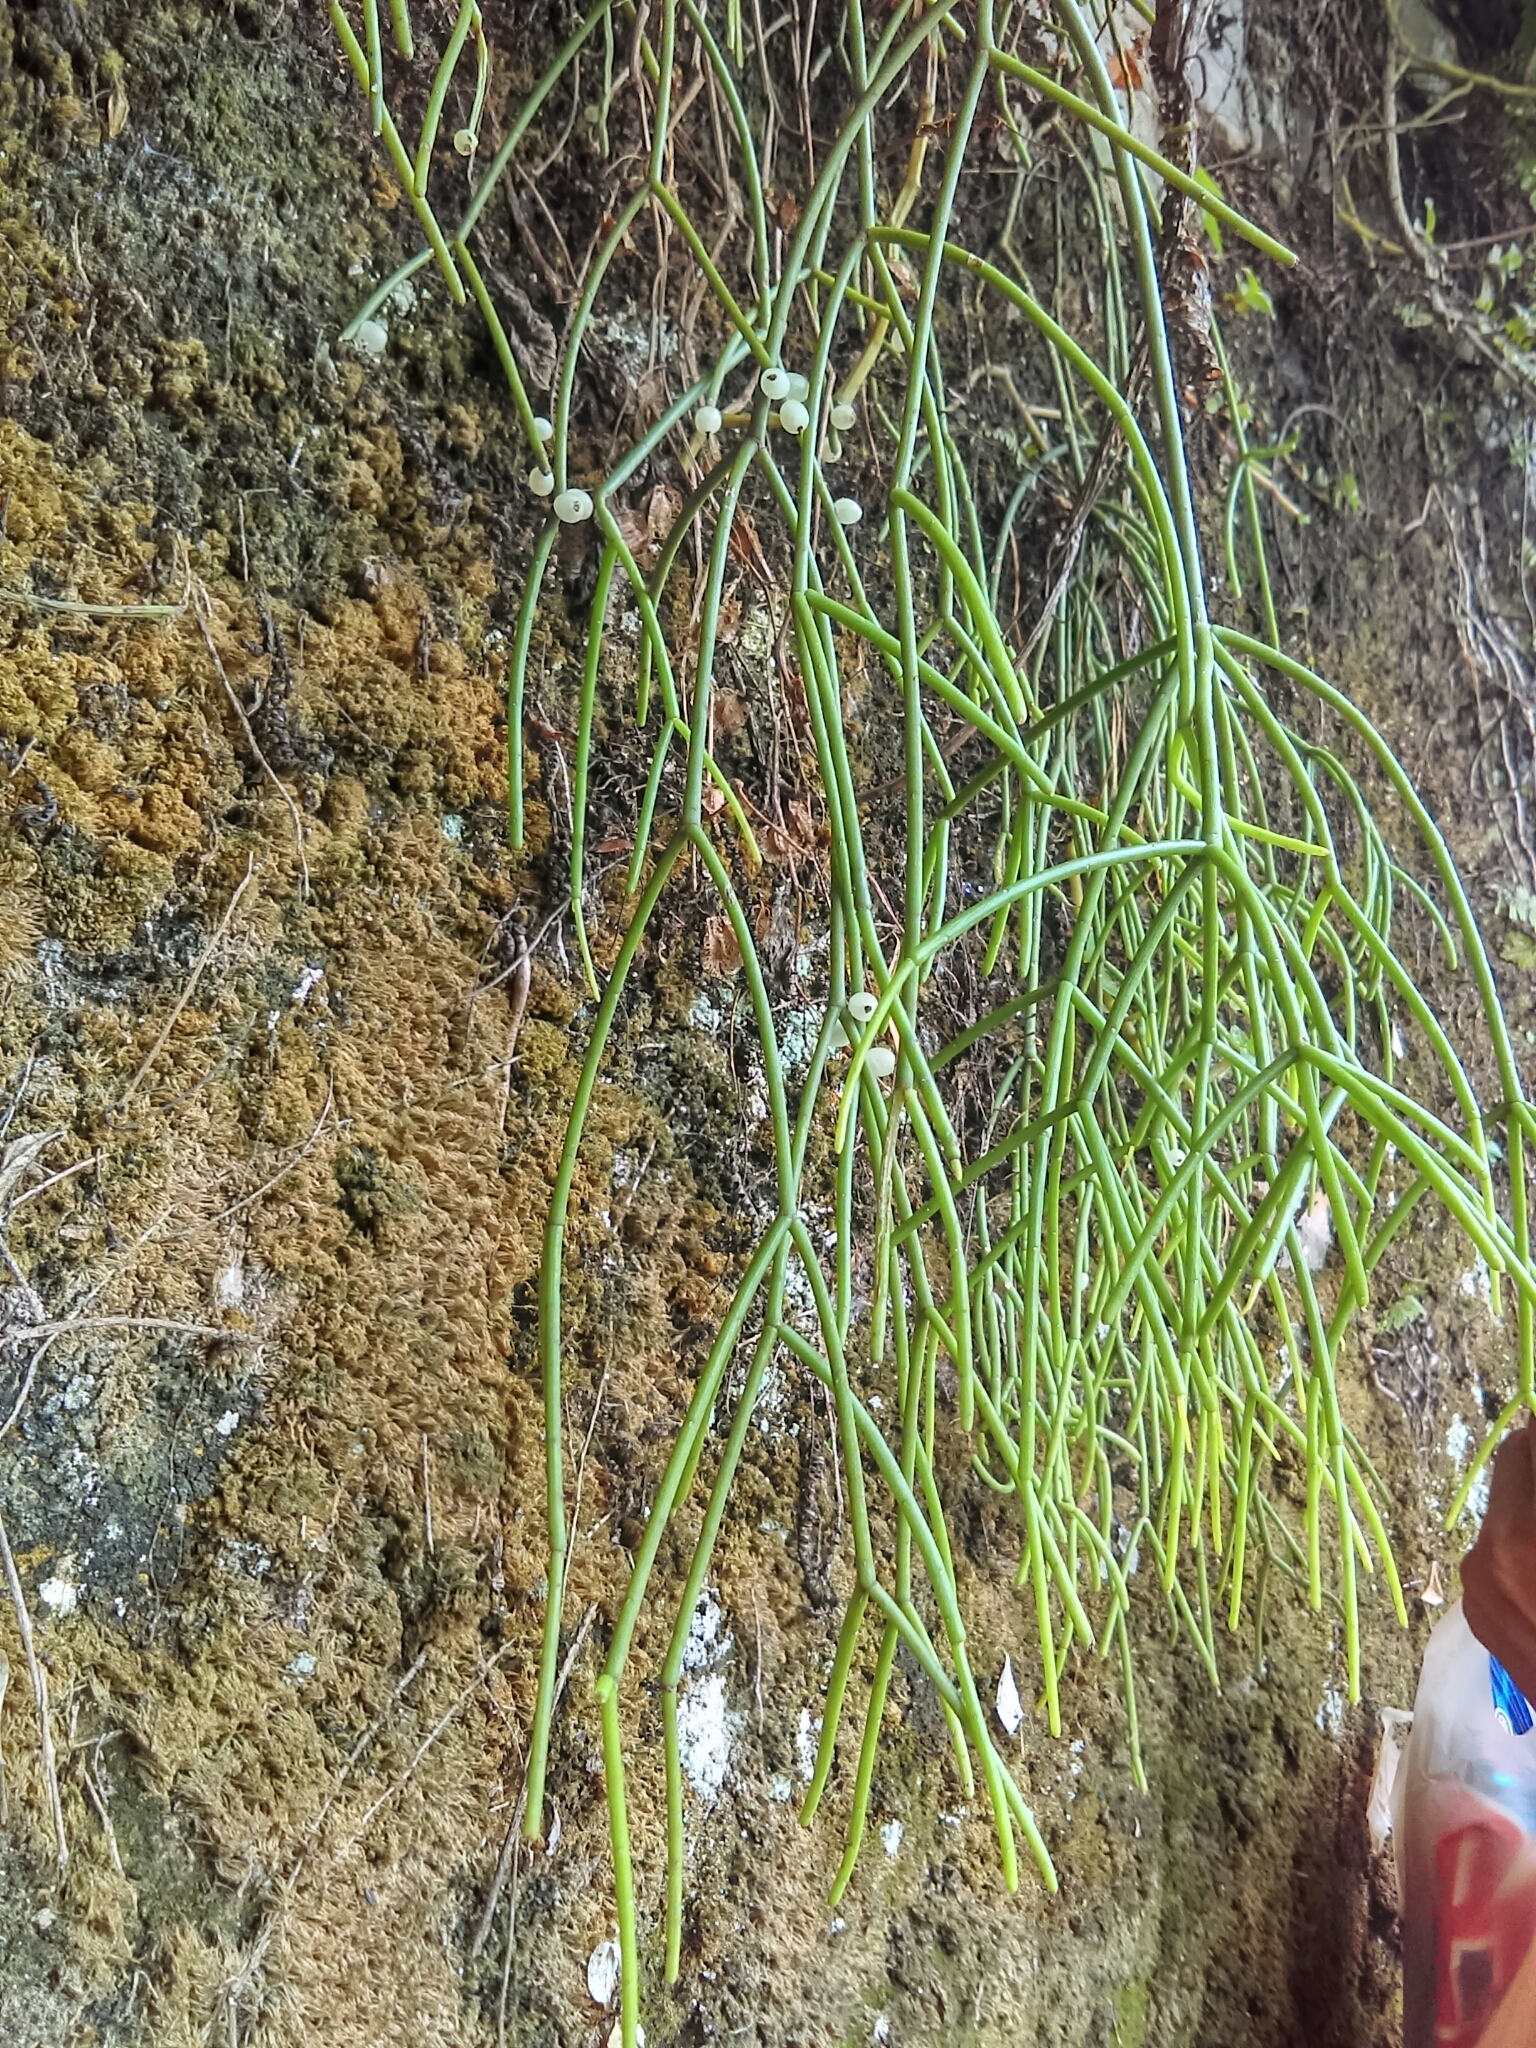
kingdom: Plantae
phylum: Tracheophyta
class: Magnoliopsida
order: Caryophyllales
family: Cactaceae
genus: Rhipsalis
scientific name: Rhipsalis baccifera
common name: Mistletoe cactus
